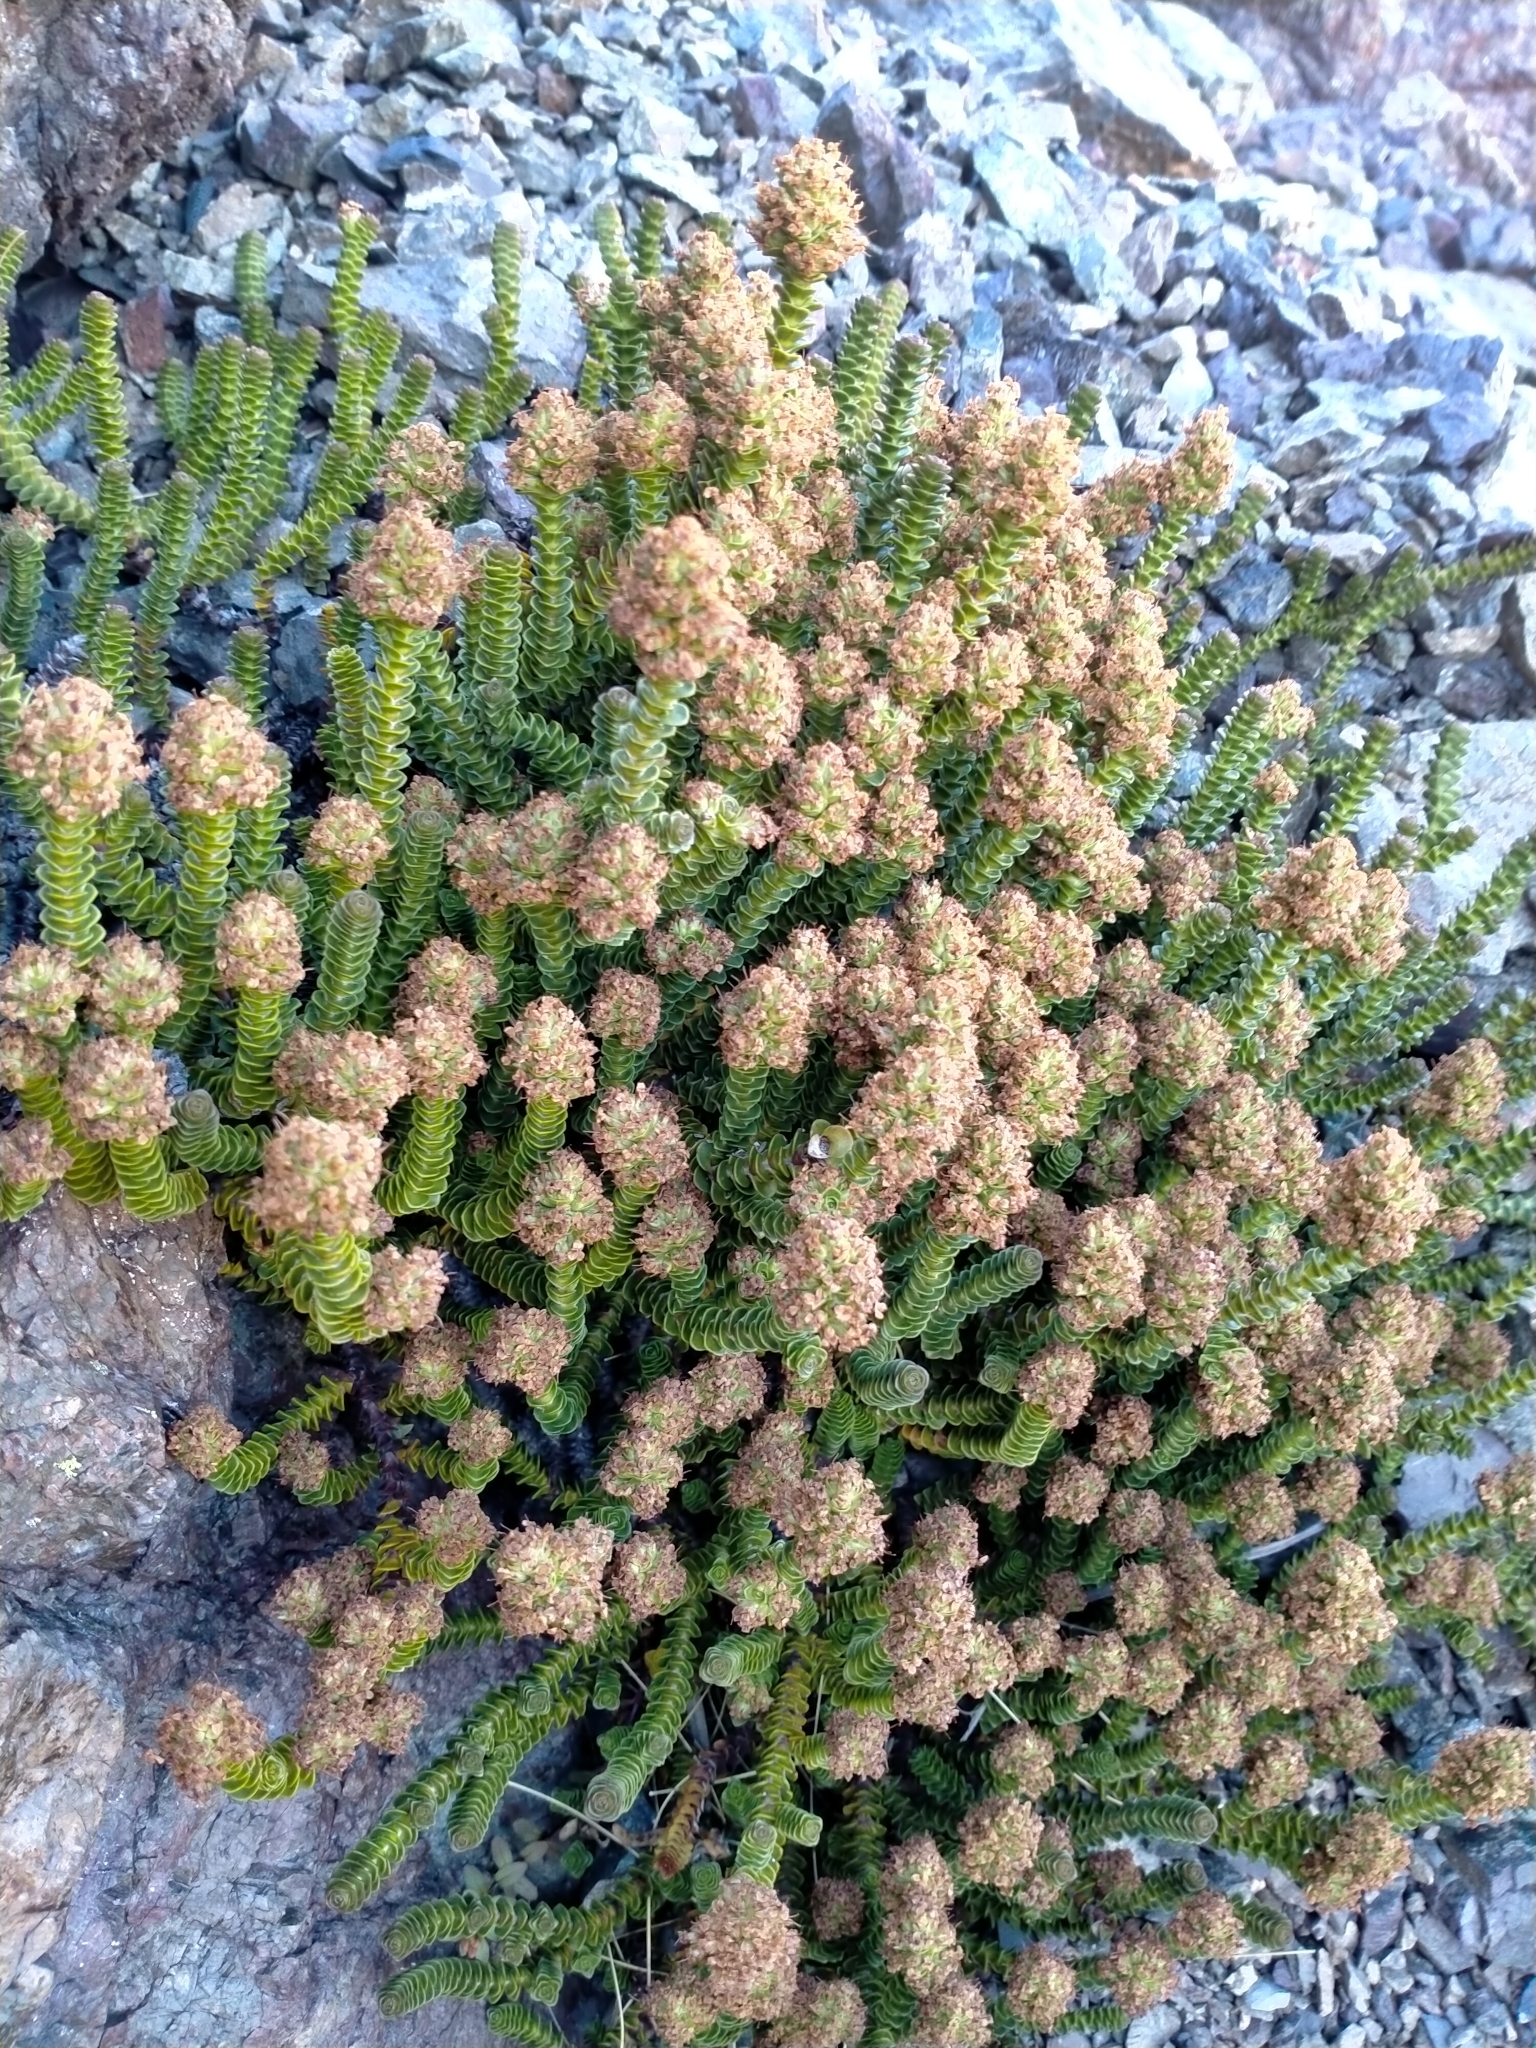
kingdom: Plantae
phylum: Tracheophyta
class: Magnoliopsida
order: Lamiales
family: Plantaginaceae
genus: Veronica
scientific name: Veronica epacridea
